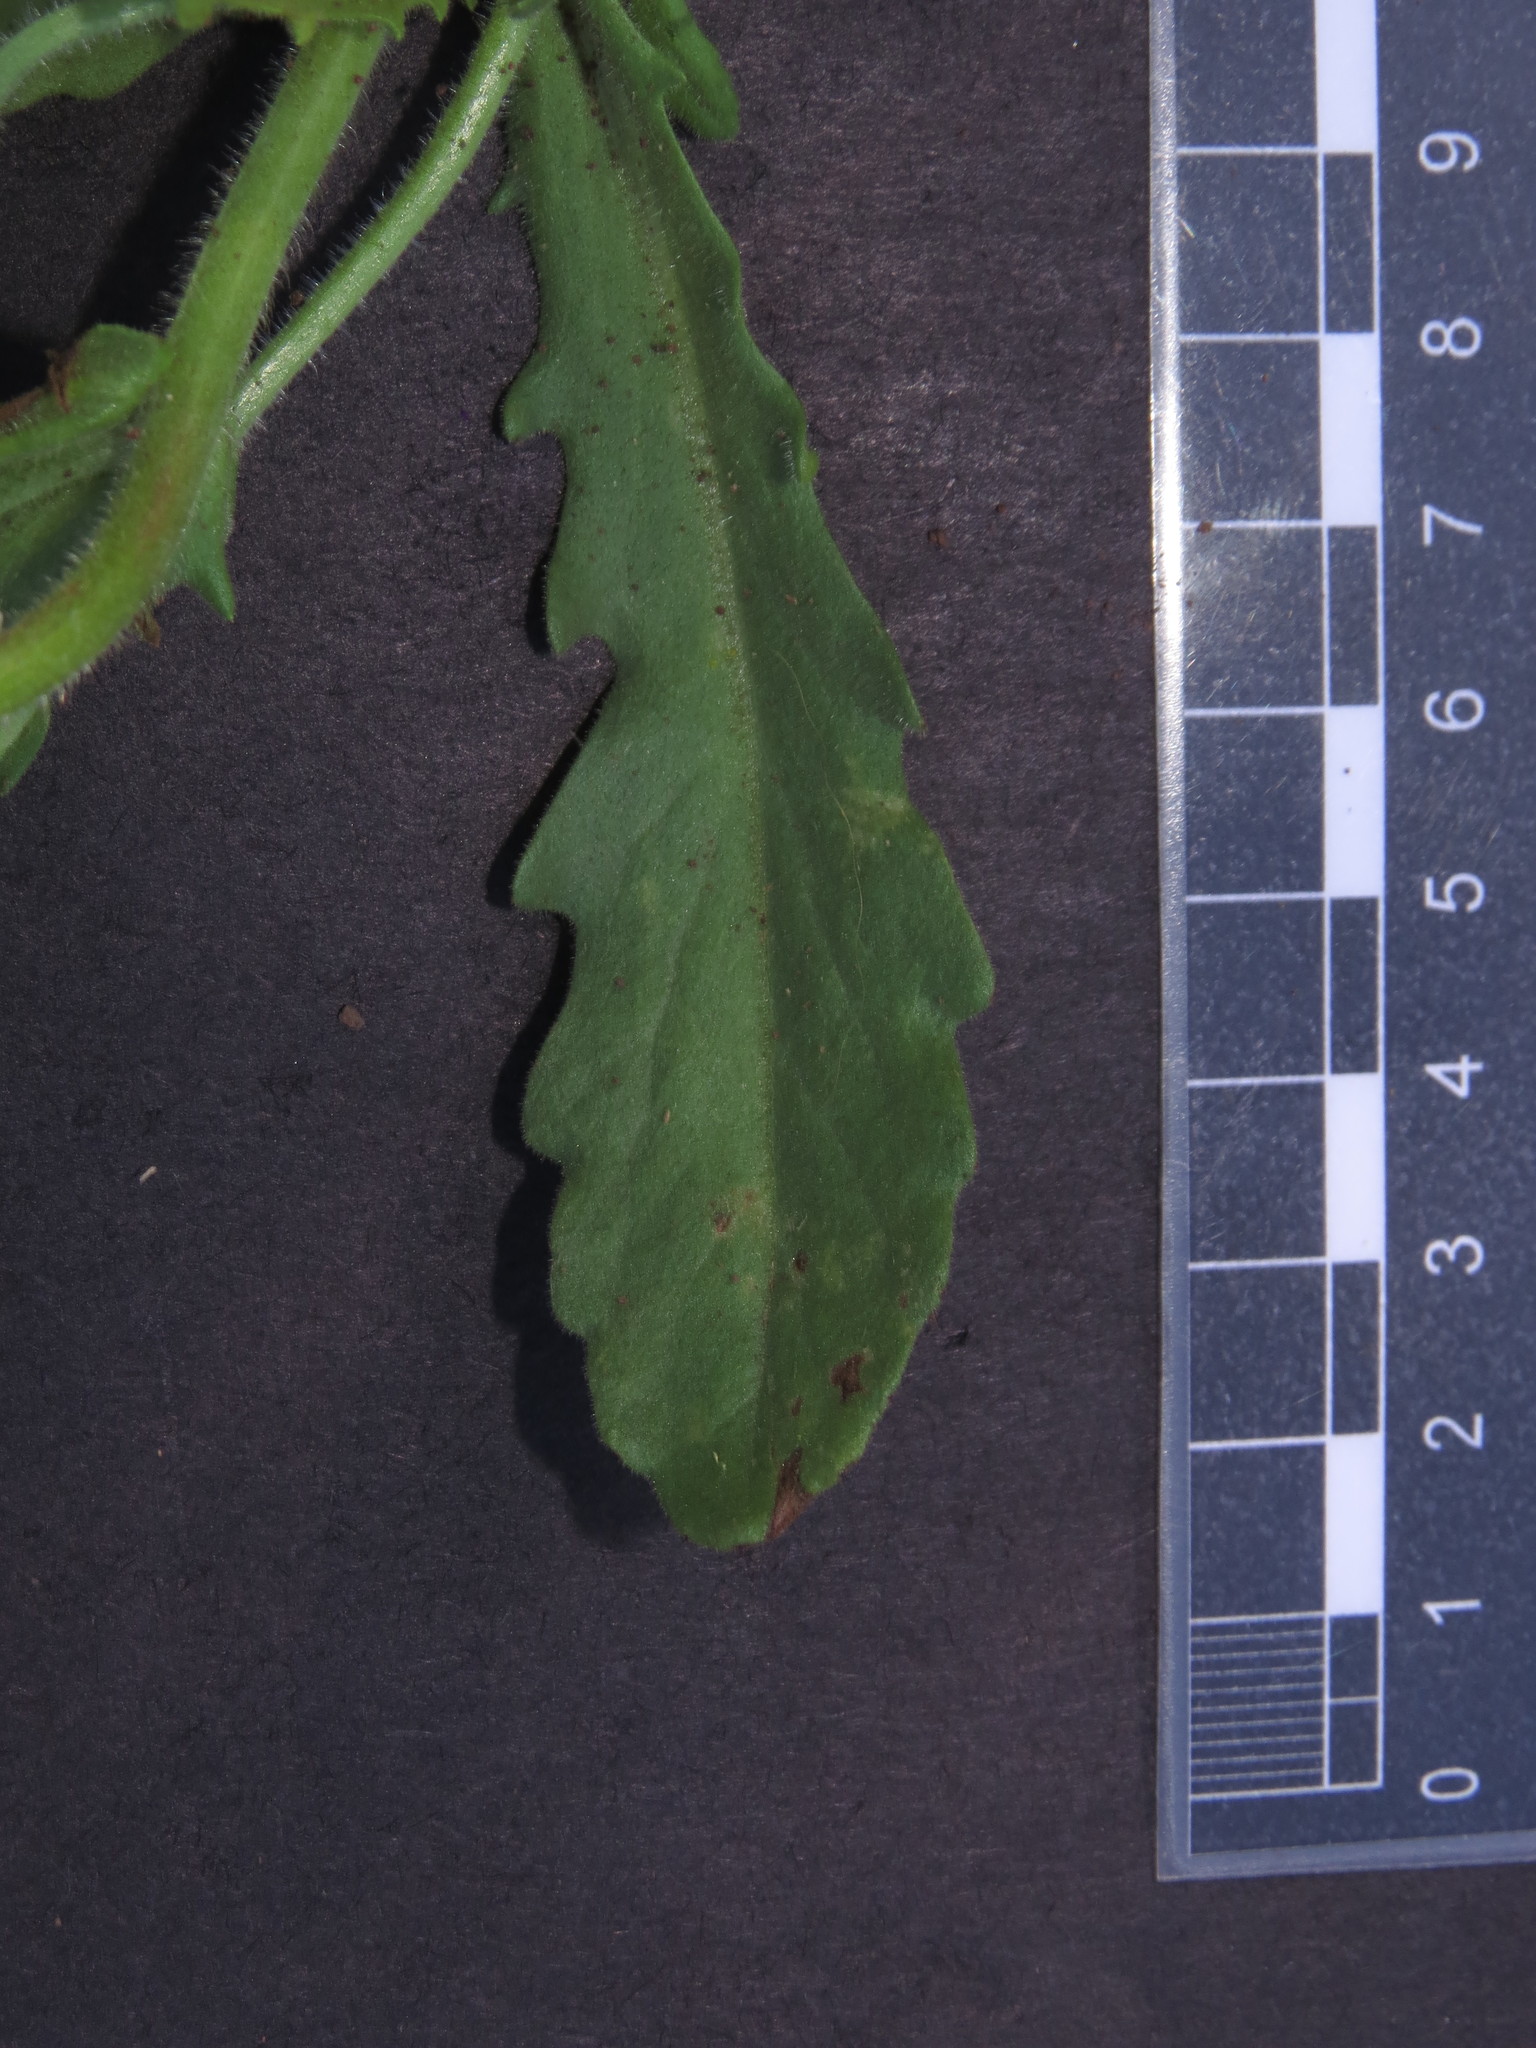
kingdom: Plantae
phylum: Tracheophyta
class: Magnoliopsida
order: Asterales
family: Asteraceae
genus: Leucheria
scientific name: Leucheria glandulosa
